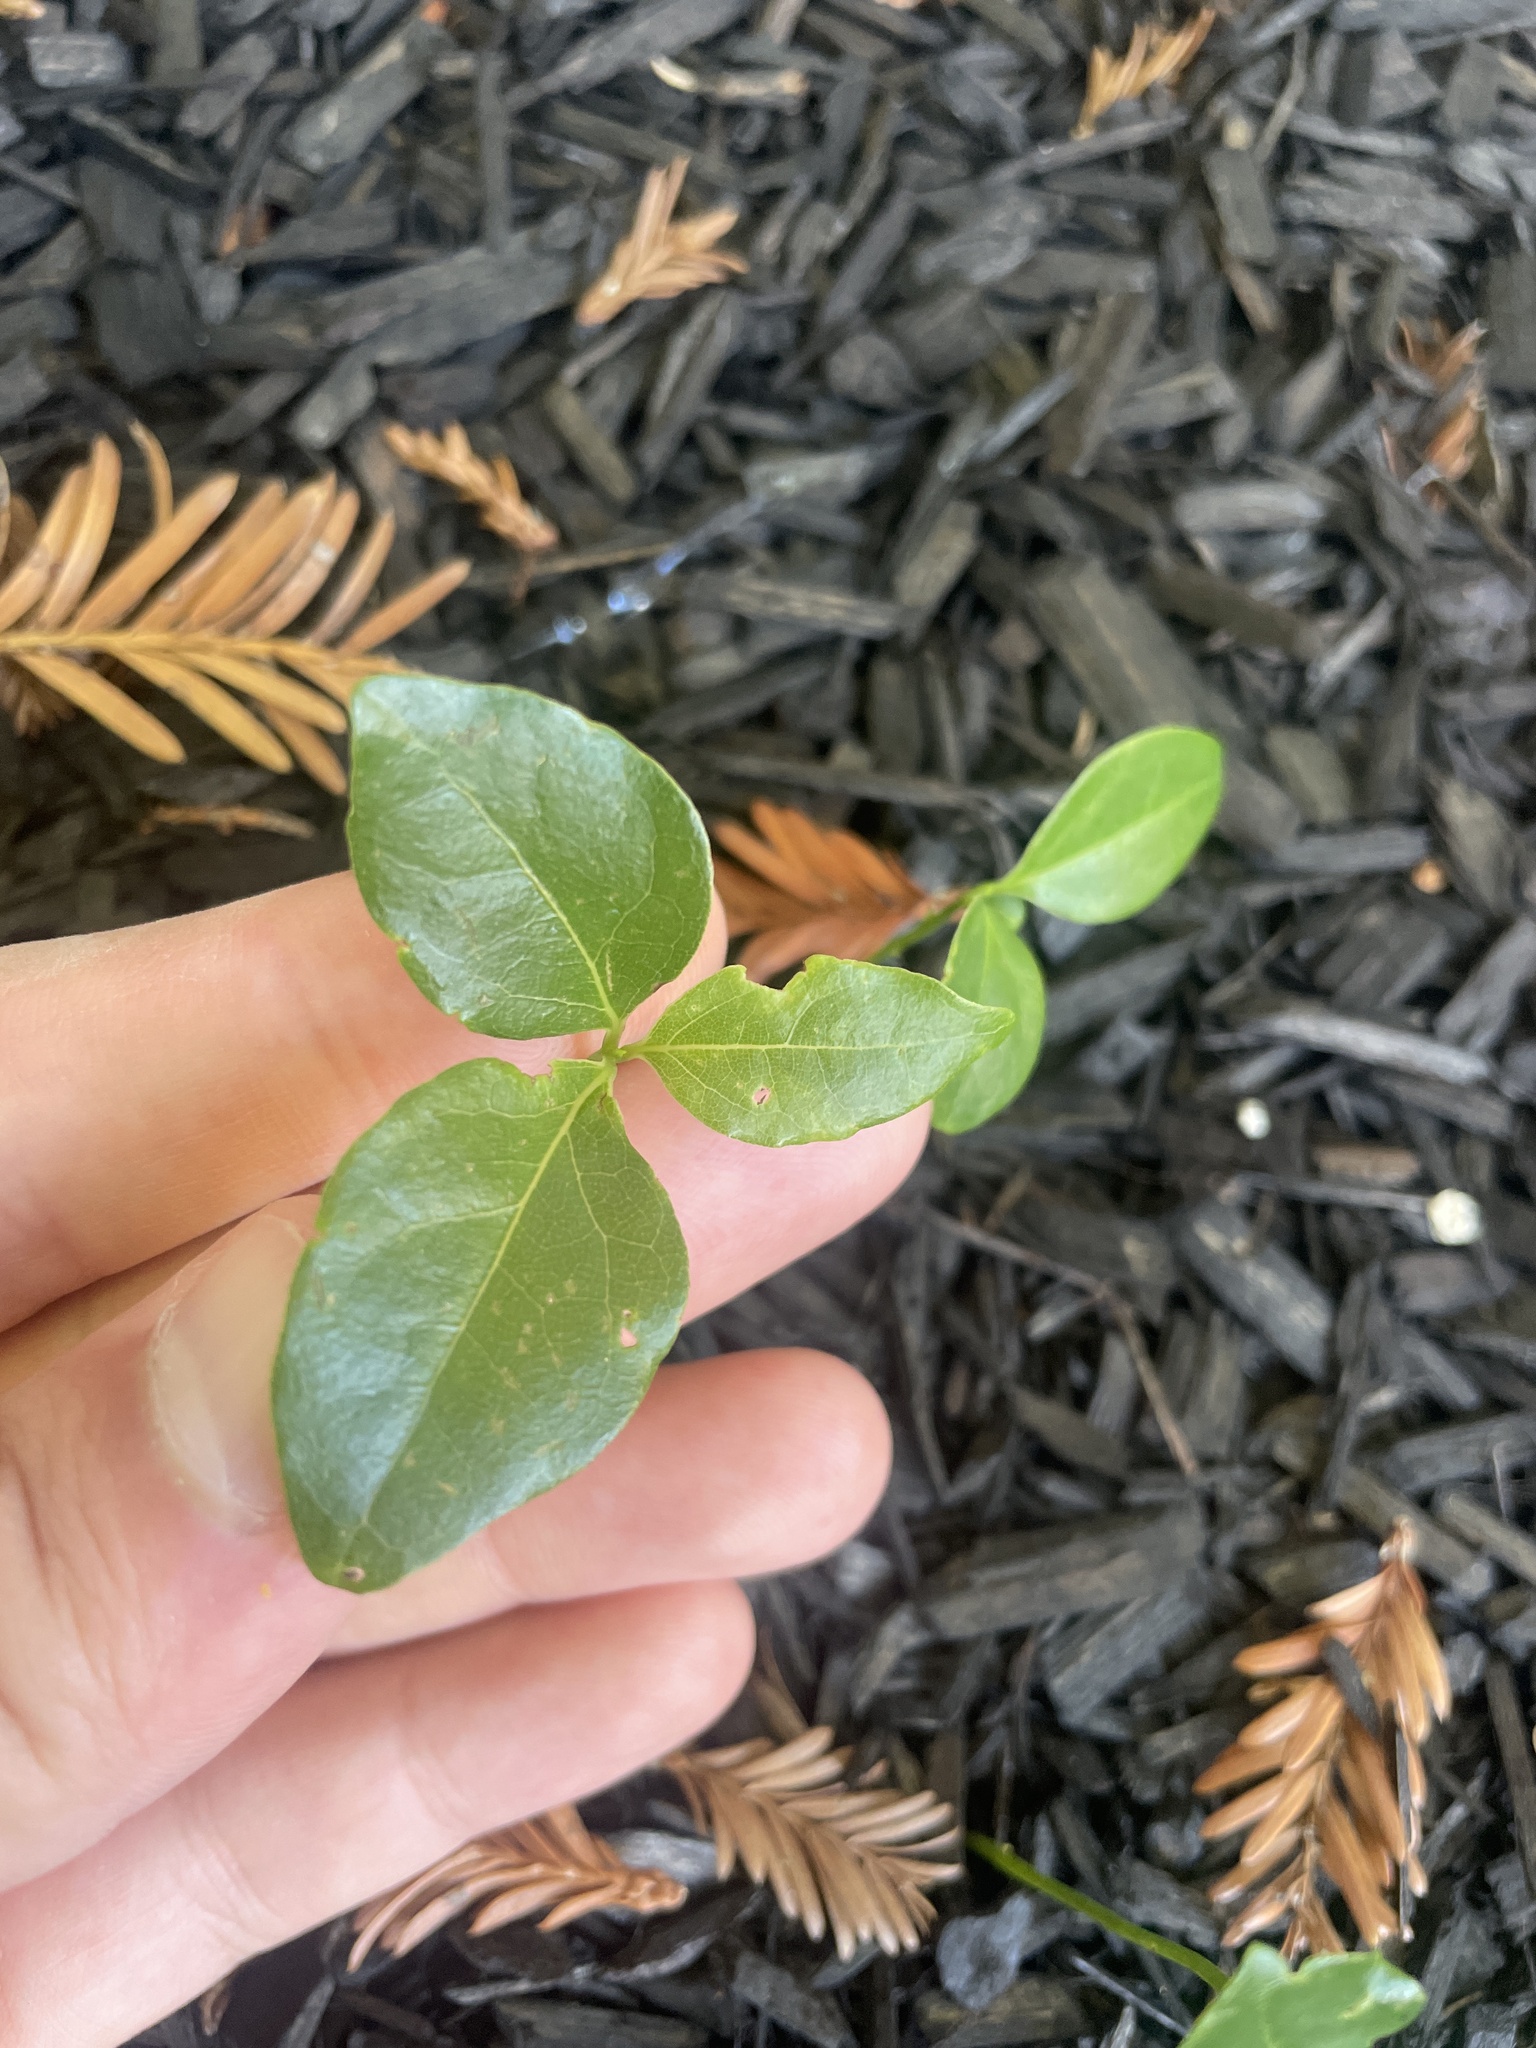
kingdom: Plantae
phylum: Tracheophyta
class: Magnoliopsida
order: Gentianales
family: Apocynaceae
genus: Vinca
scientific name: Vinca major
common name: Greater periwinkle
